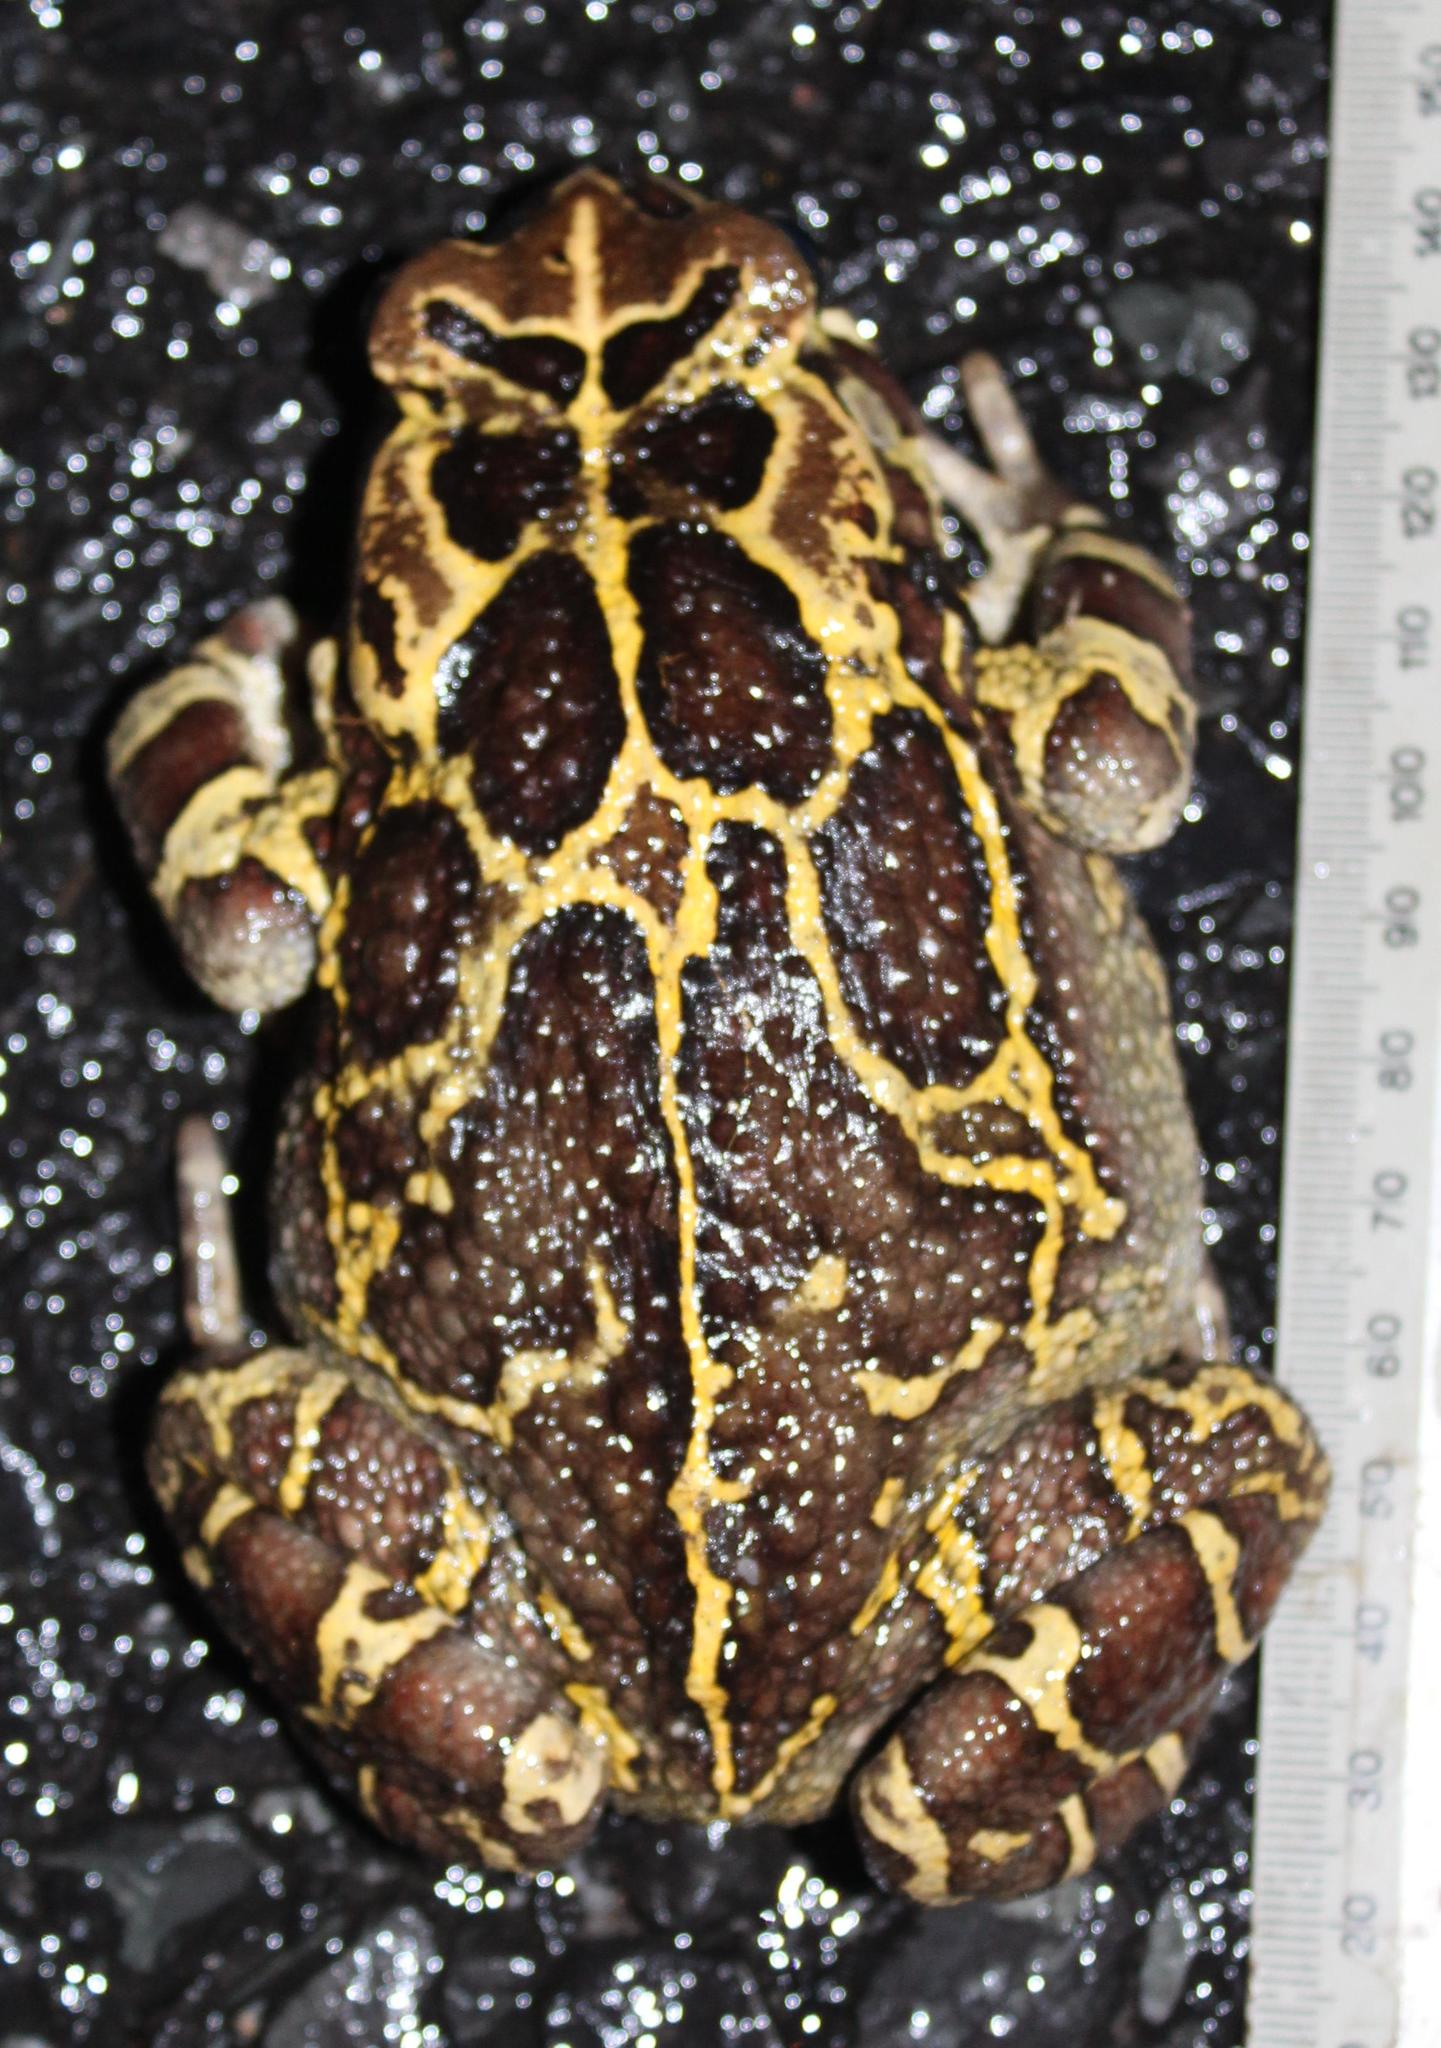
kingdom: Animalia
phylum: Chordata
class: Amphibia
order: Anura
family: Bufonidae
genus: Sclerophrys
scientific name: Sclerophrys pantherina
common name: Panther toad
